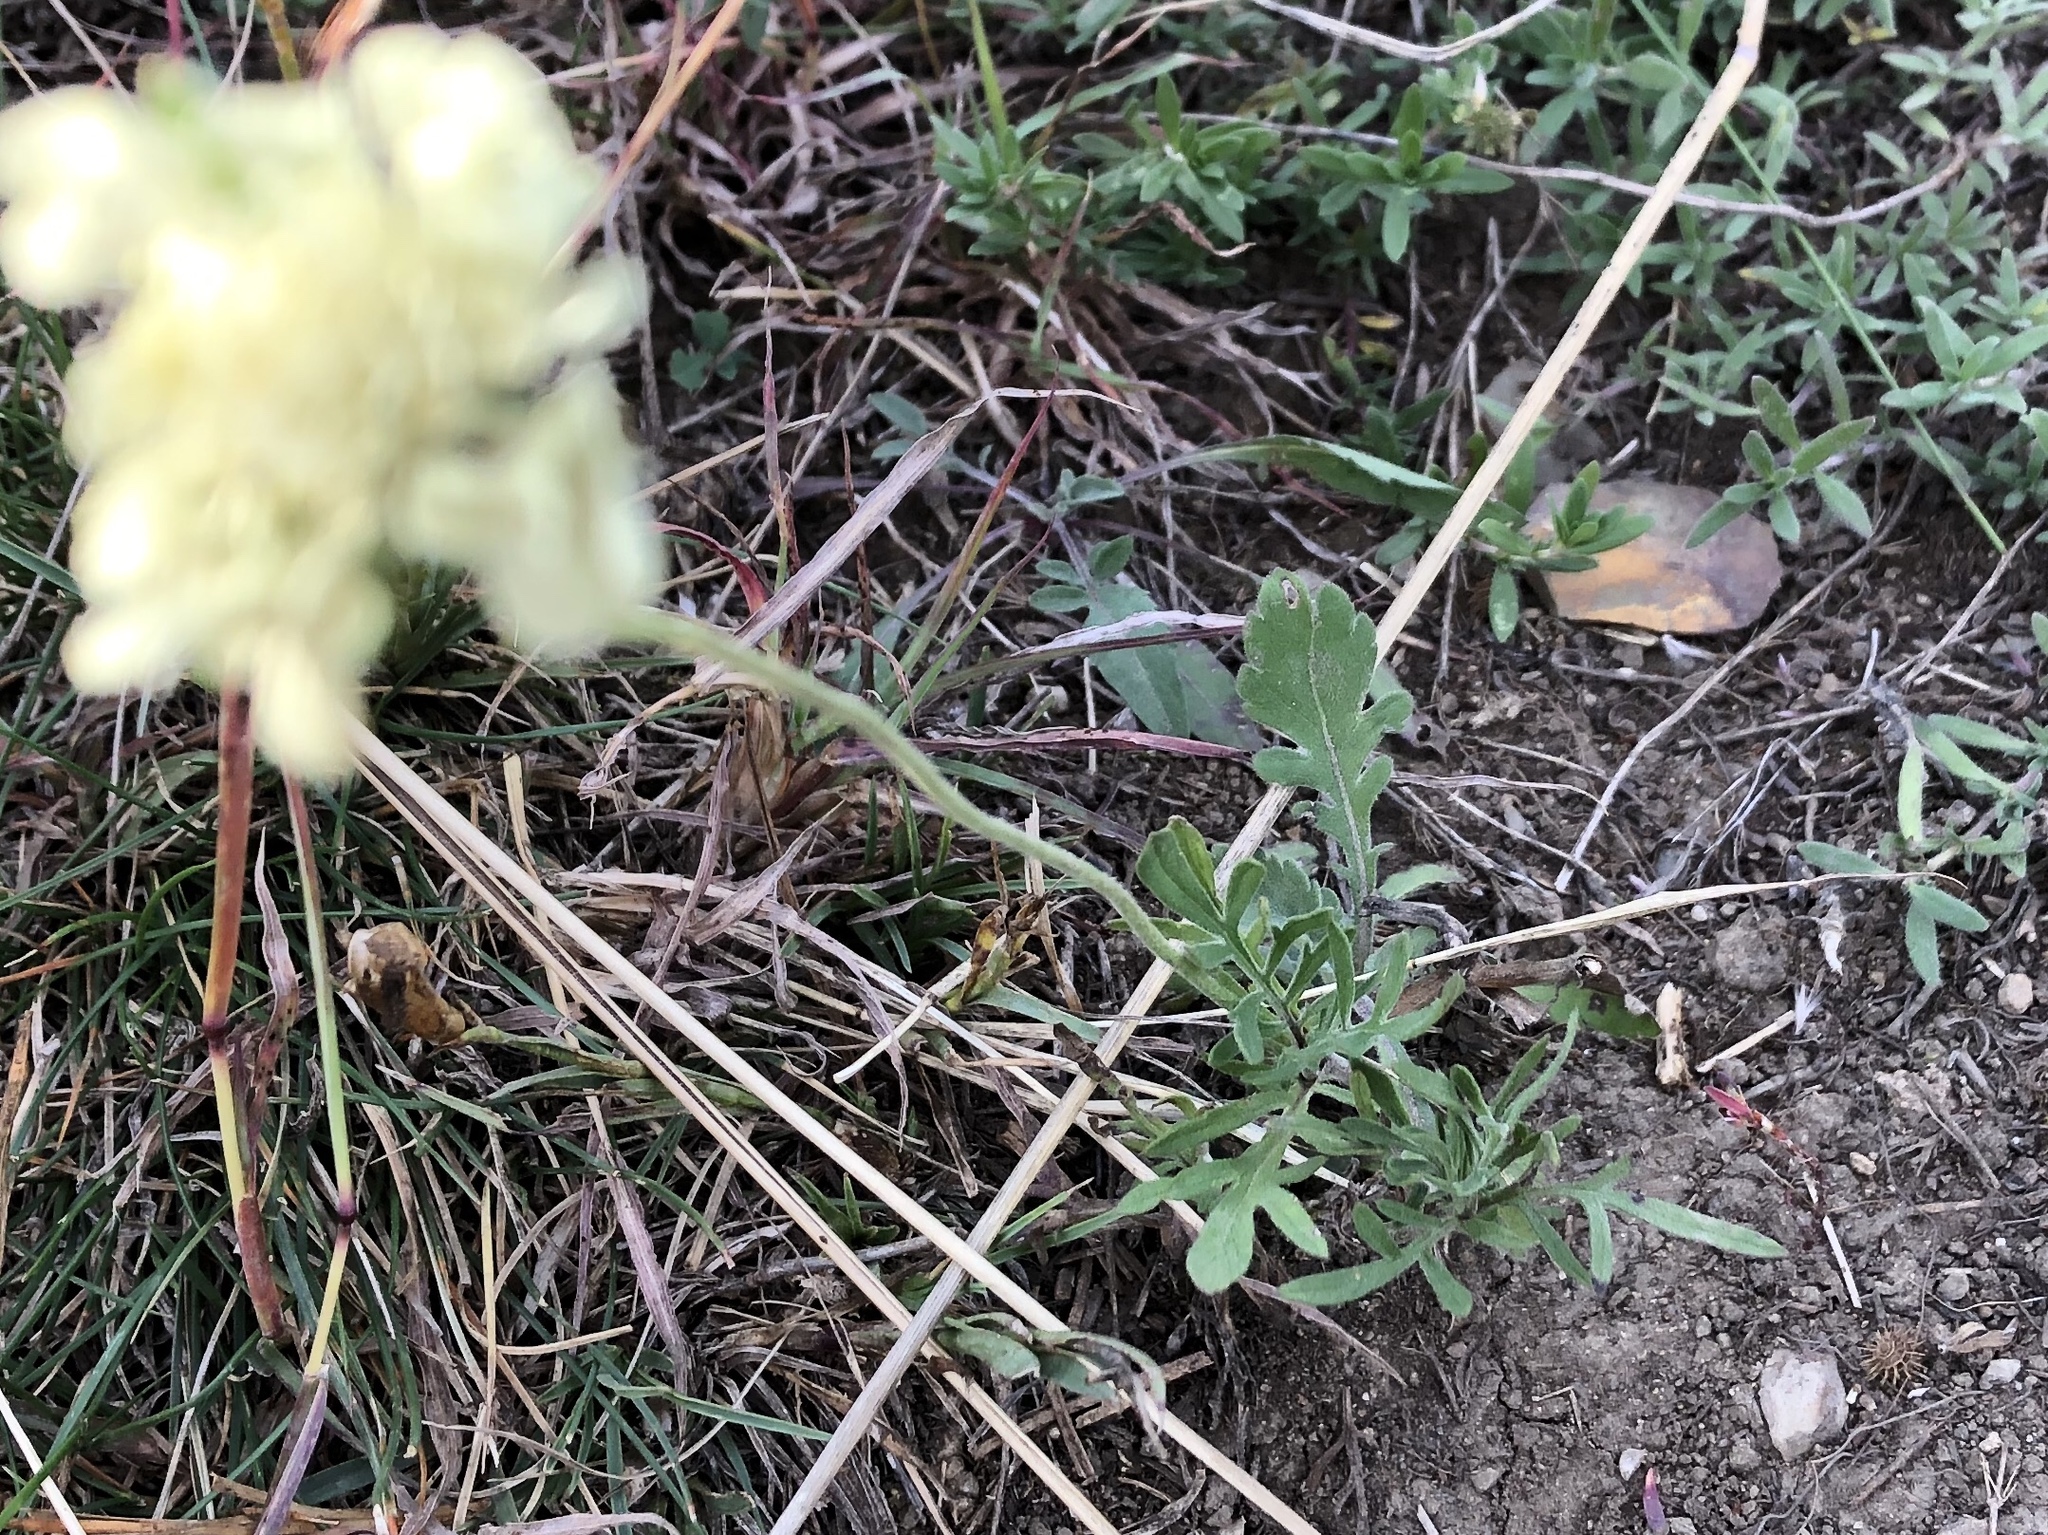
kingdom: Plantae
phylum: Tracheophyta
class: Magnoliopsida
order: Dipsacales
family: Caprifoliaceae
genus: Scabiosa
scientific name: Scabiosa ochroleuca
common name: Cream pincushions
